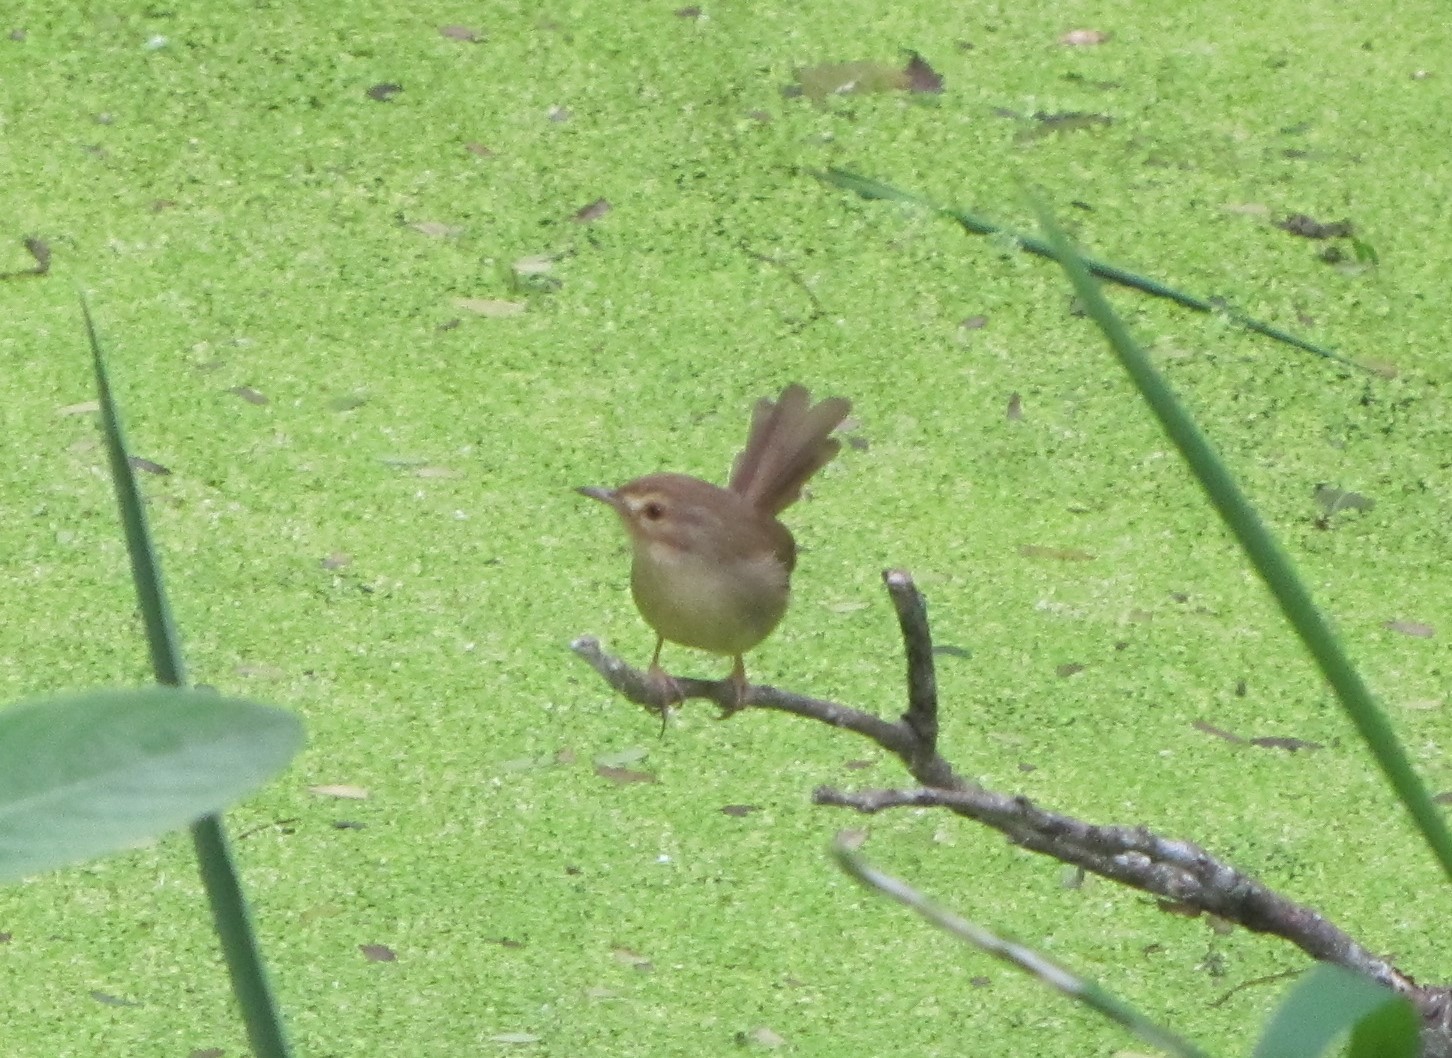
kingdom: Animalia
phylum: Chordata
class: Aves
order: Passeriformes
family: Cisticolidae
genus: Prinia
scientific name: Prinia inornata
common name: Plain prinia
